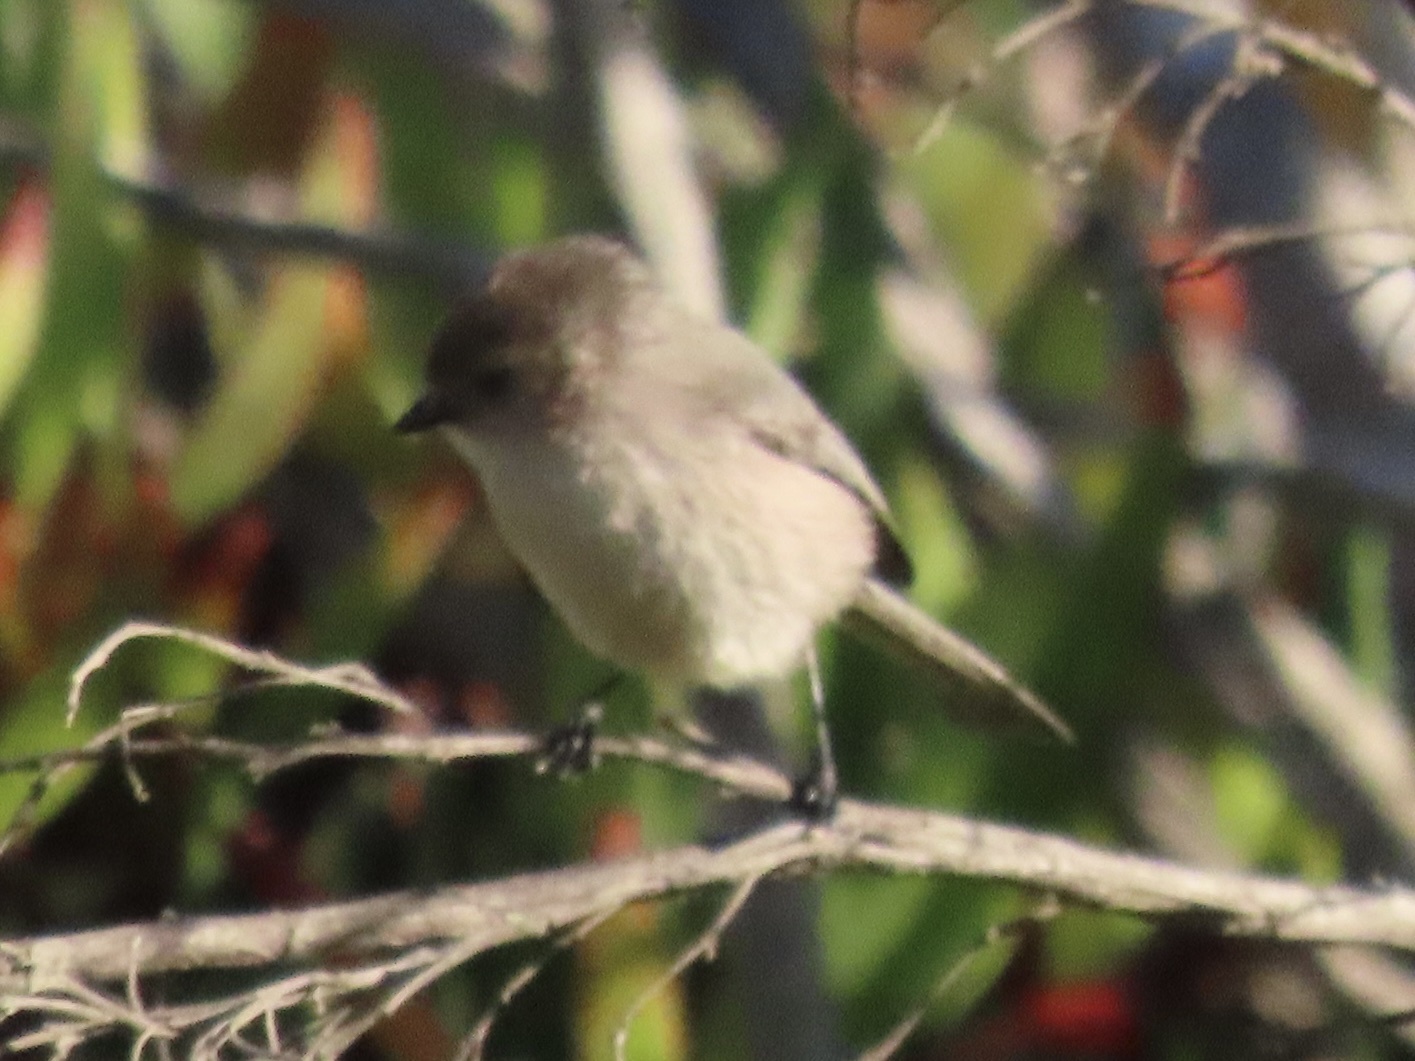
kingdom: Animalia
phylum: Chordata
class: Aves
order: Passeriformes
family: Aegithalidae
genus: Psaltriparus
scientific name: Psaltriparus minimus
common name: American bushtit
